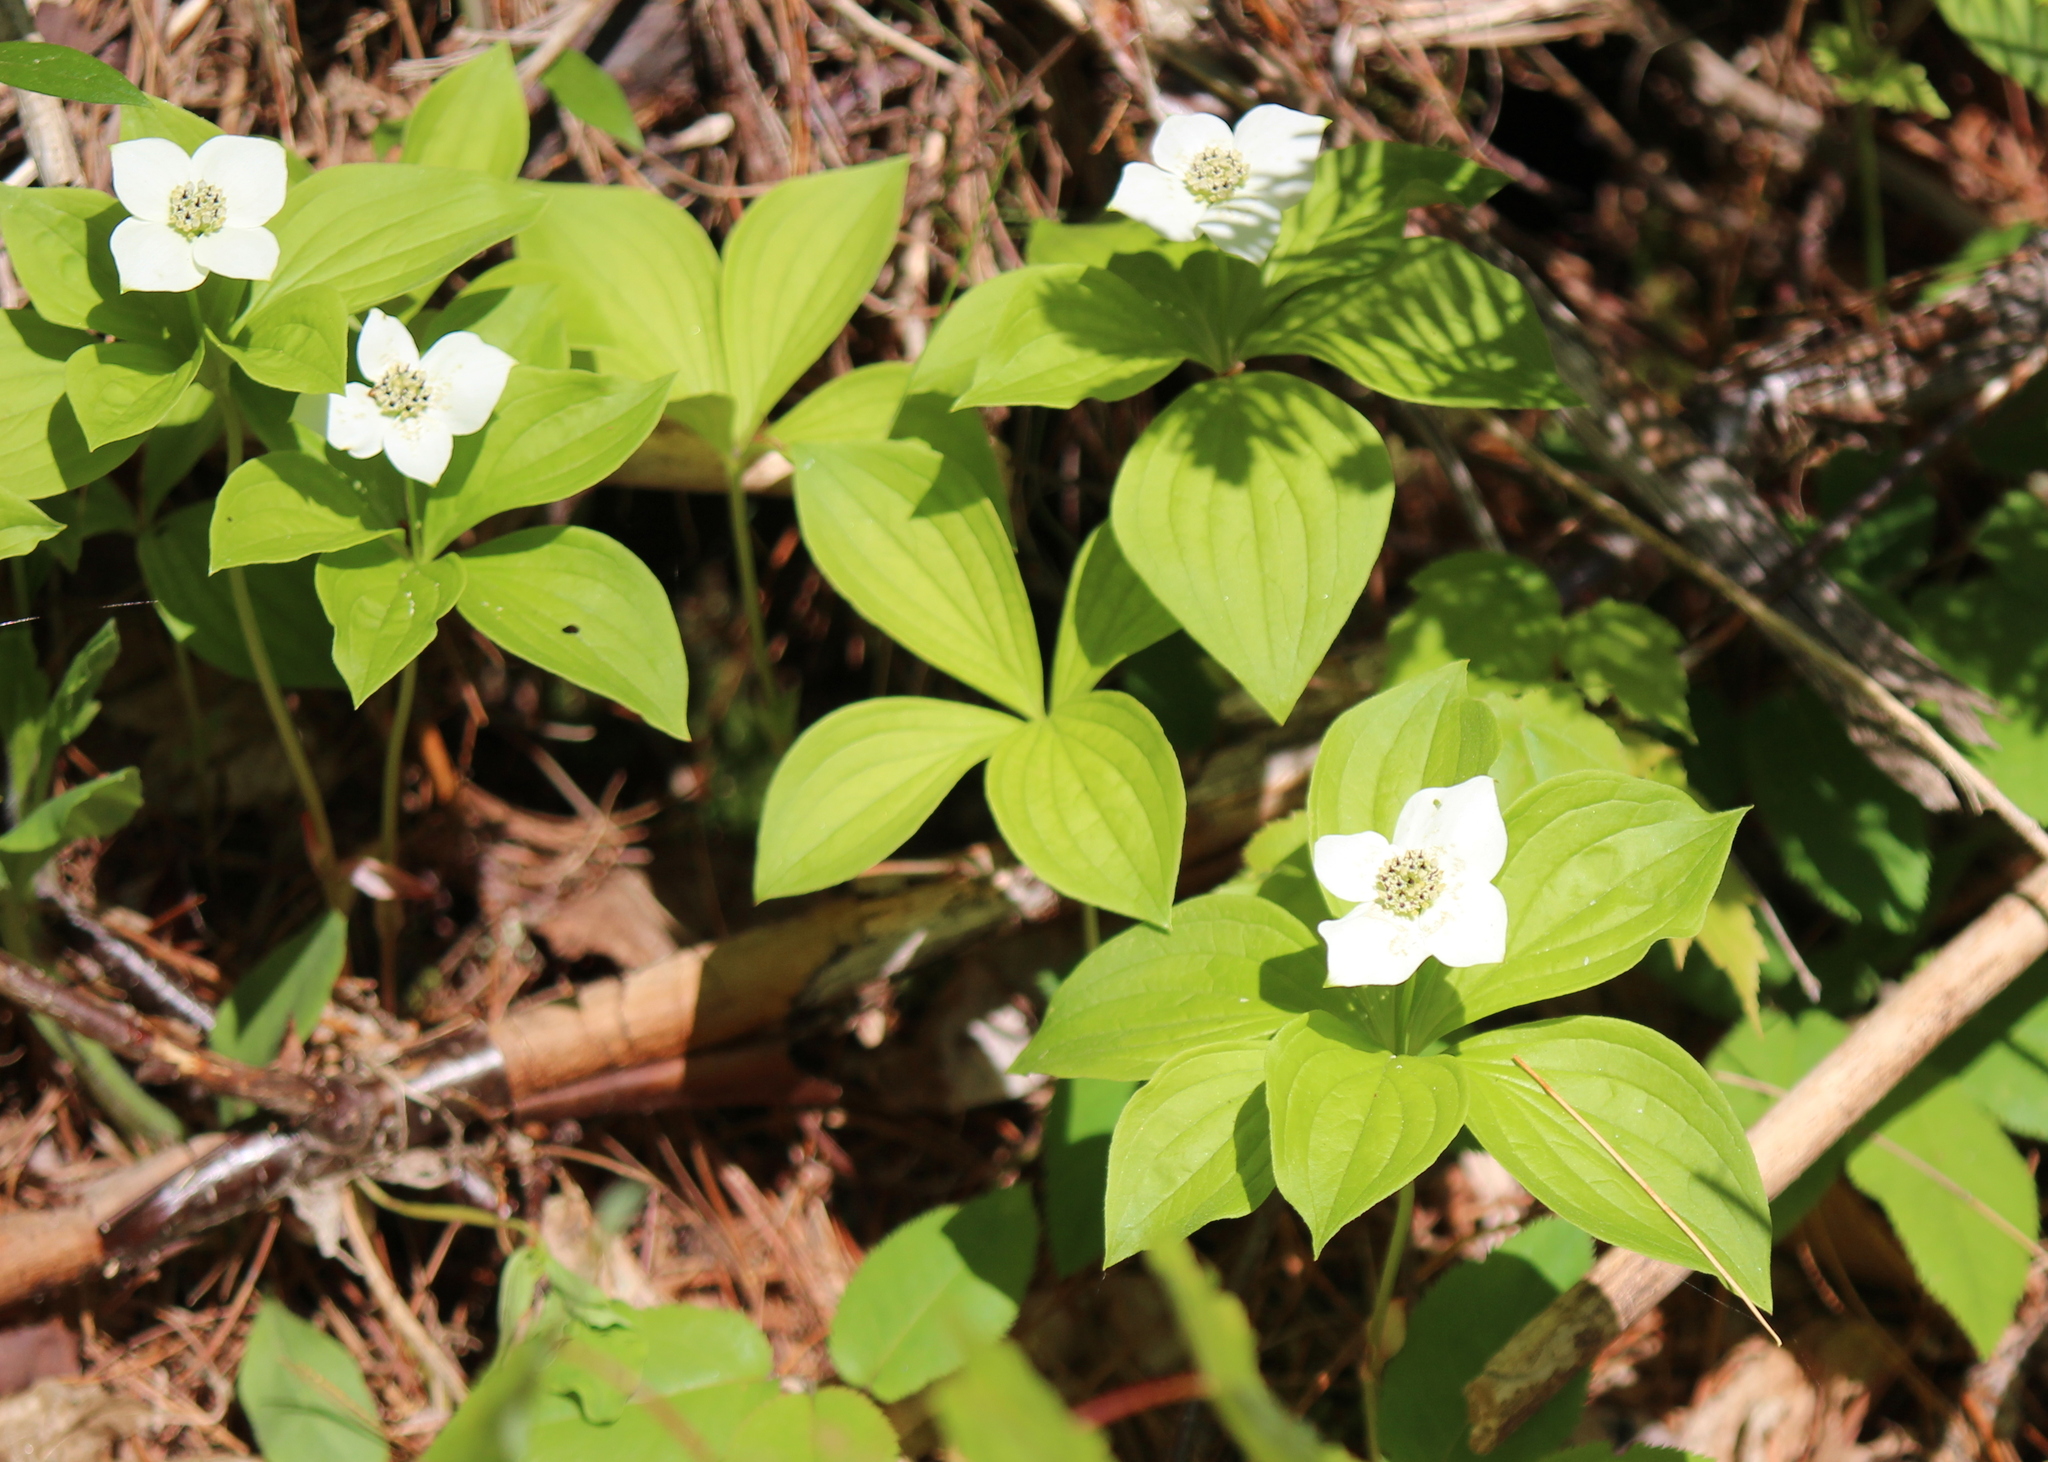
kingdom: Plantae
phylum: Tracheophyta
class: Magnoliopsida
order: Cornales
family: Cornaceae
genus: Cornus
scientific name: Cornus canadensis
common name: Creeping dogwood
